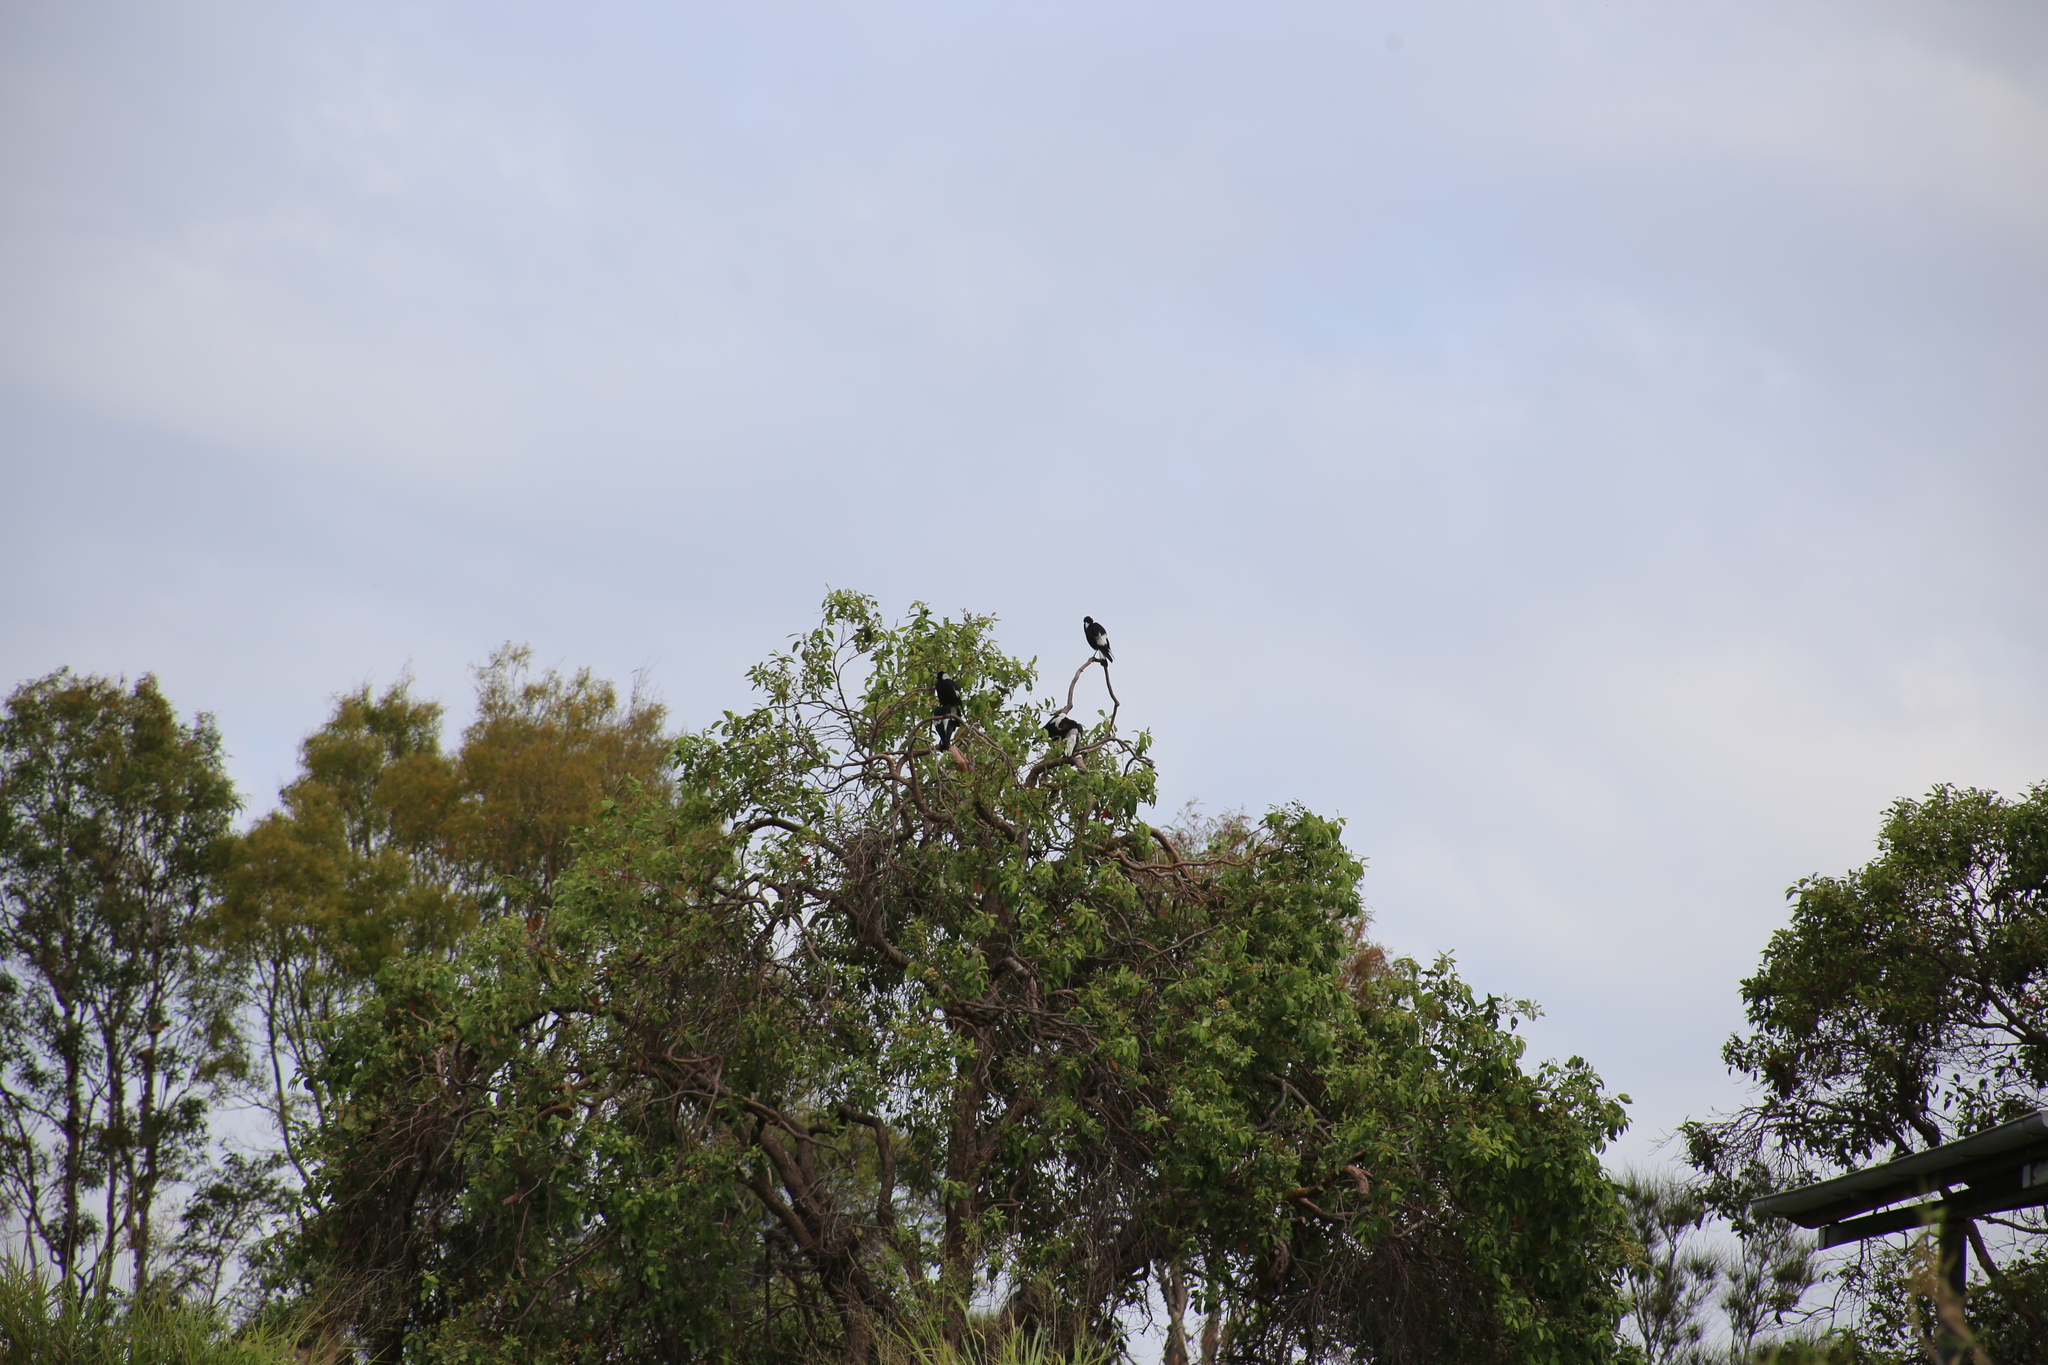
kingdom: Animalia
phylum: Chordata
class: Aves
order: Passeriformes
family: Cracticidae
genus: Gymnorhina
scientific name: Gymnorhina tibicen
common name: Australian magpie
